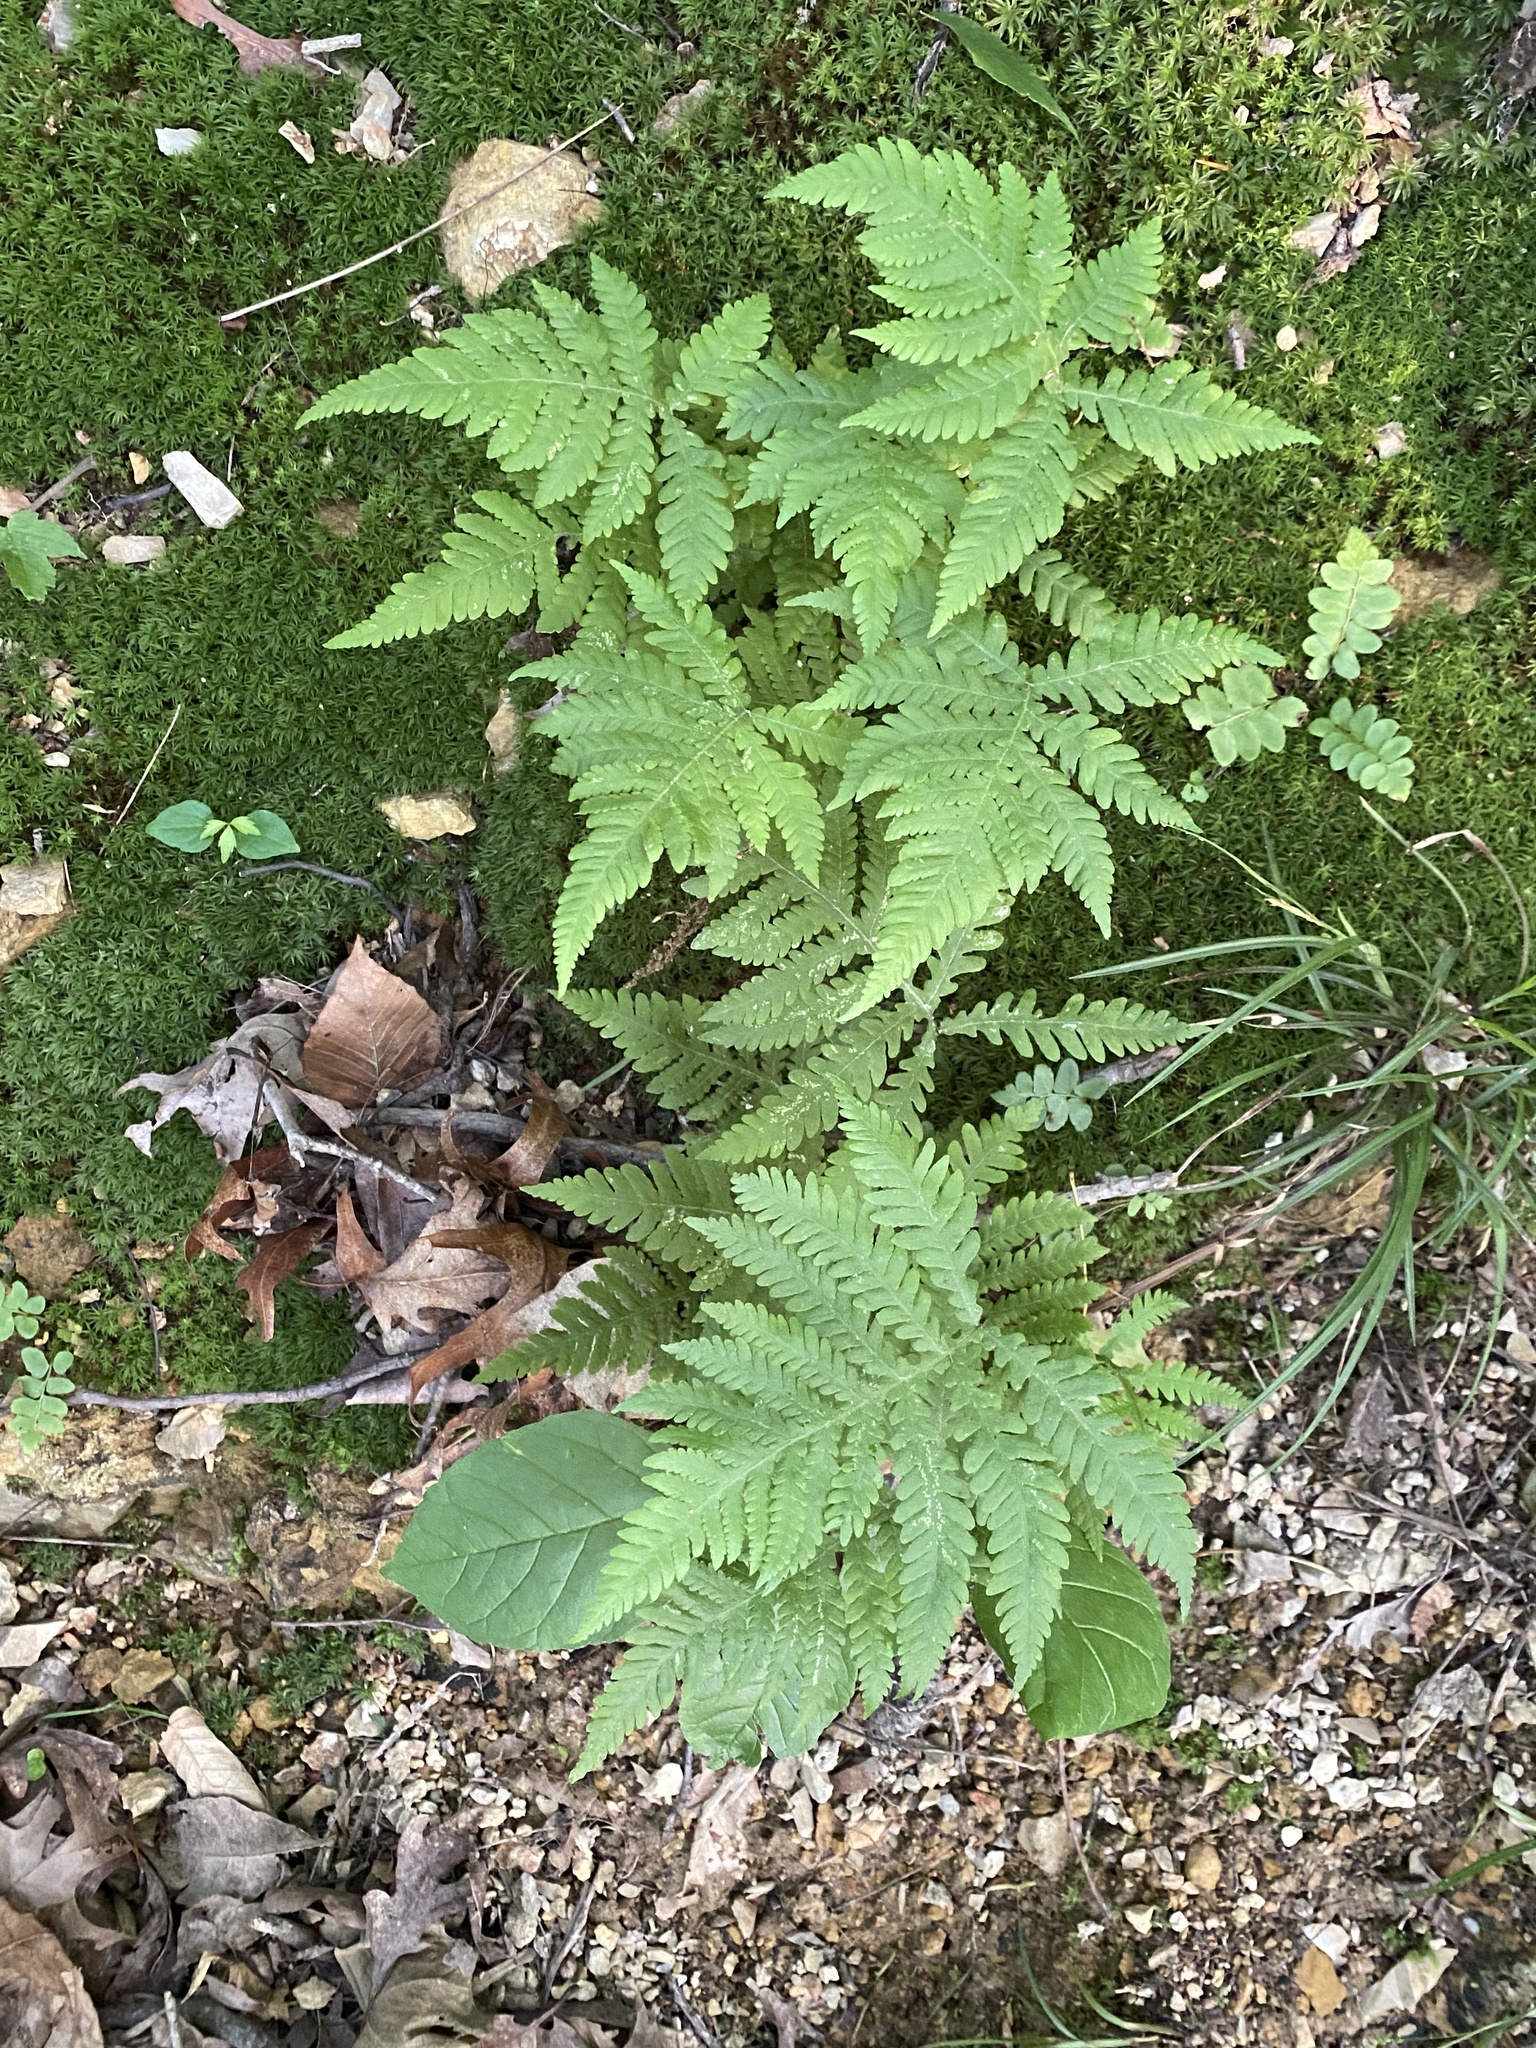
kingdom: Plantae
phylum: Tracheophyta
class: Polypodiopsida
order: Polypodiales
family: Thelypteridaceae
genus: Phegopteris
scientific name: Phegopteris hexagonoptera
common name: Broad beech fern
